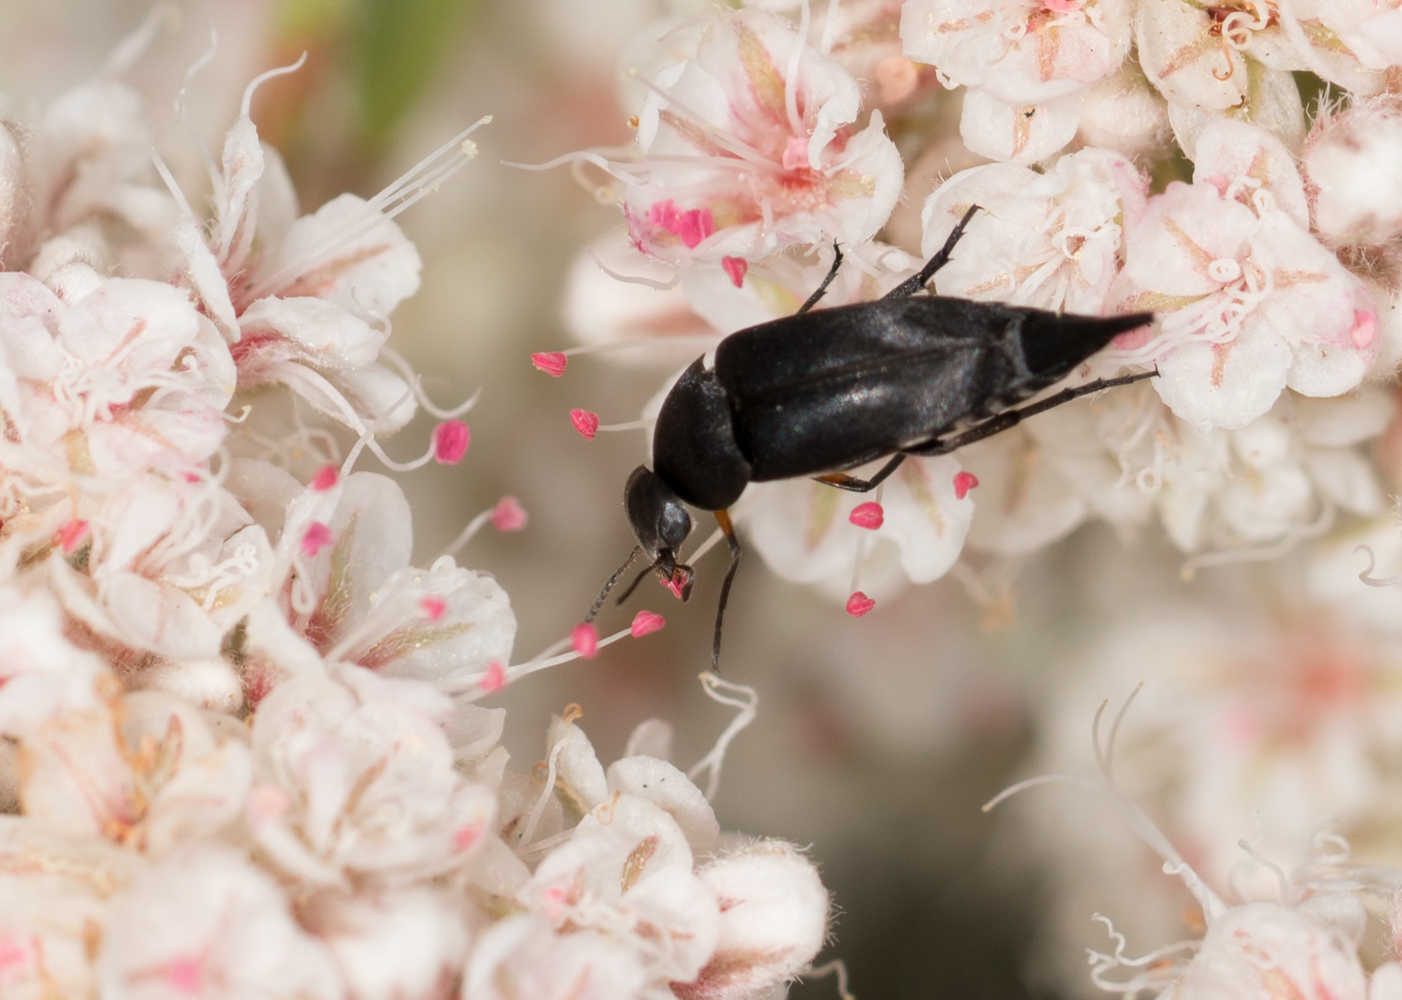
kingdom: Animalia
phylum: Arthropoda
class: Insecta
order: Coleoptera
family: Mordellidae
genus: Mordella
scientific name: Mordella hubbsi
